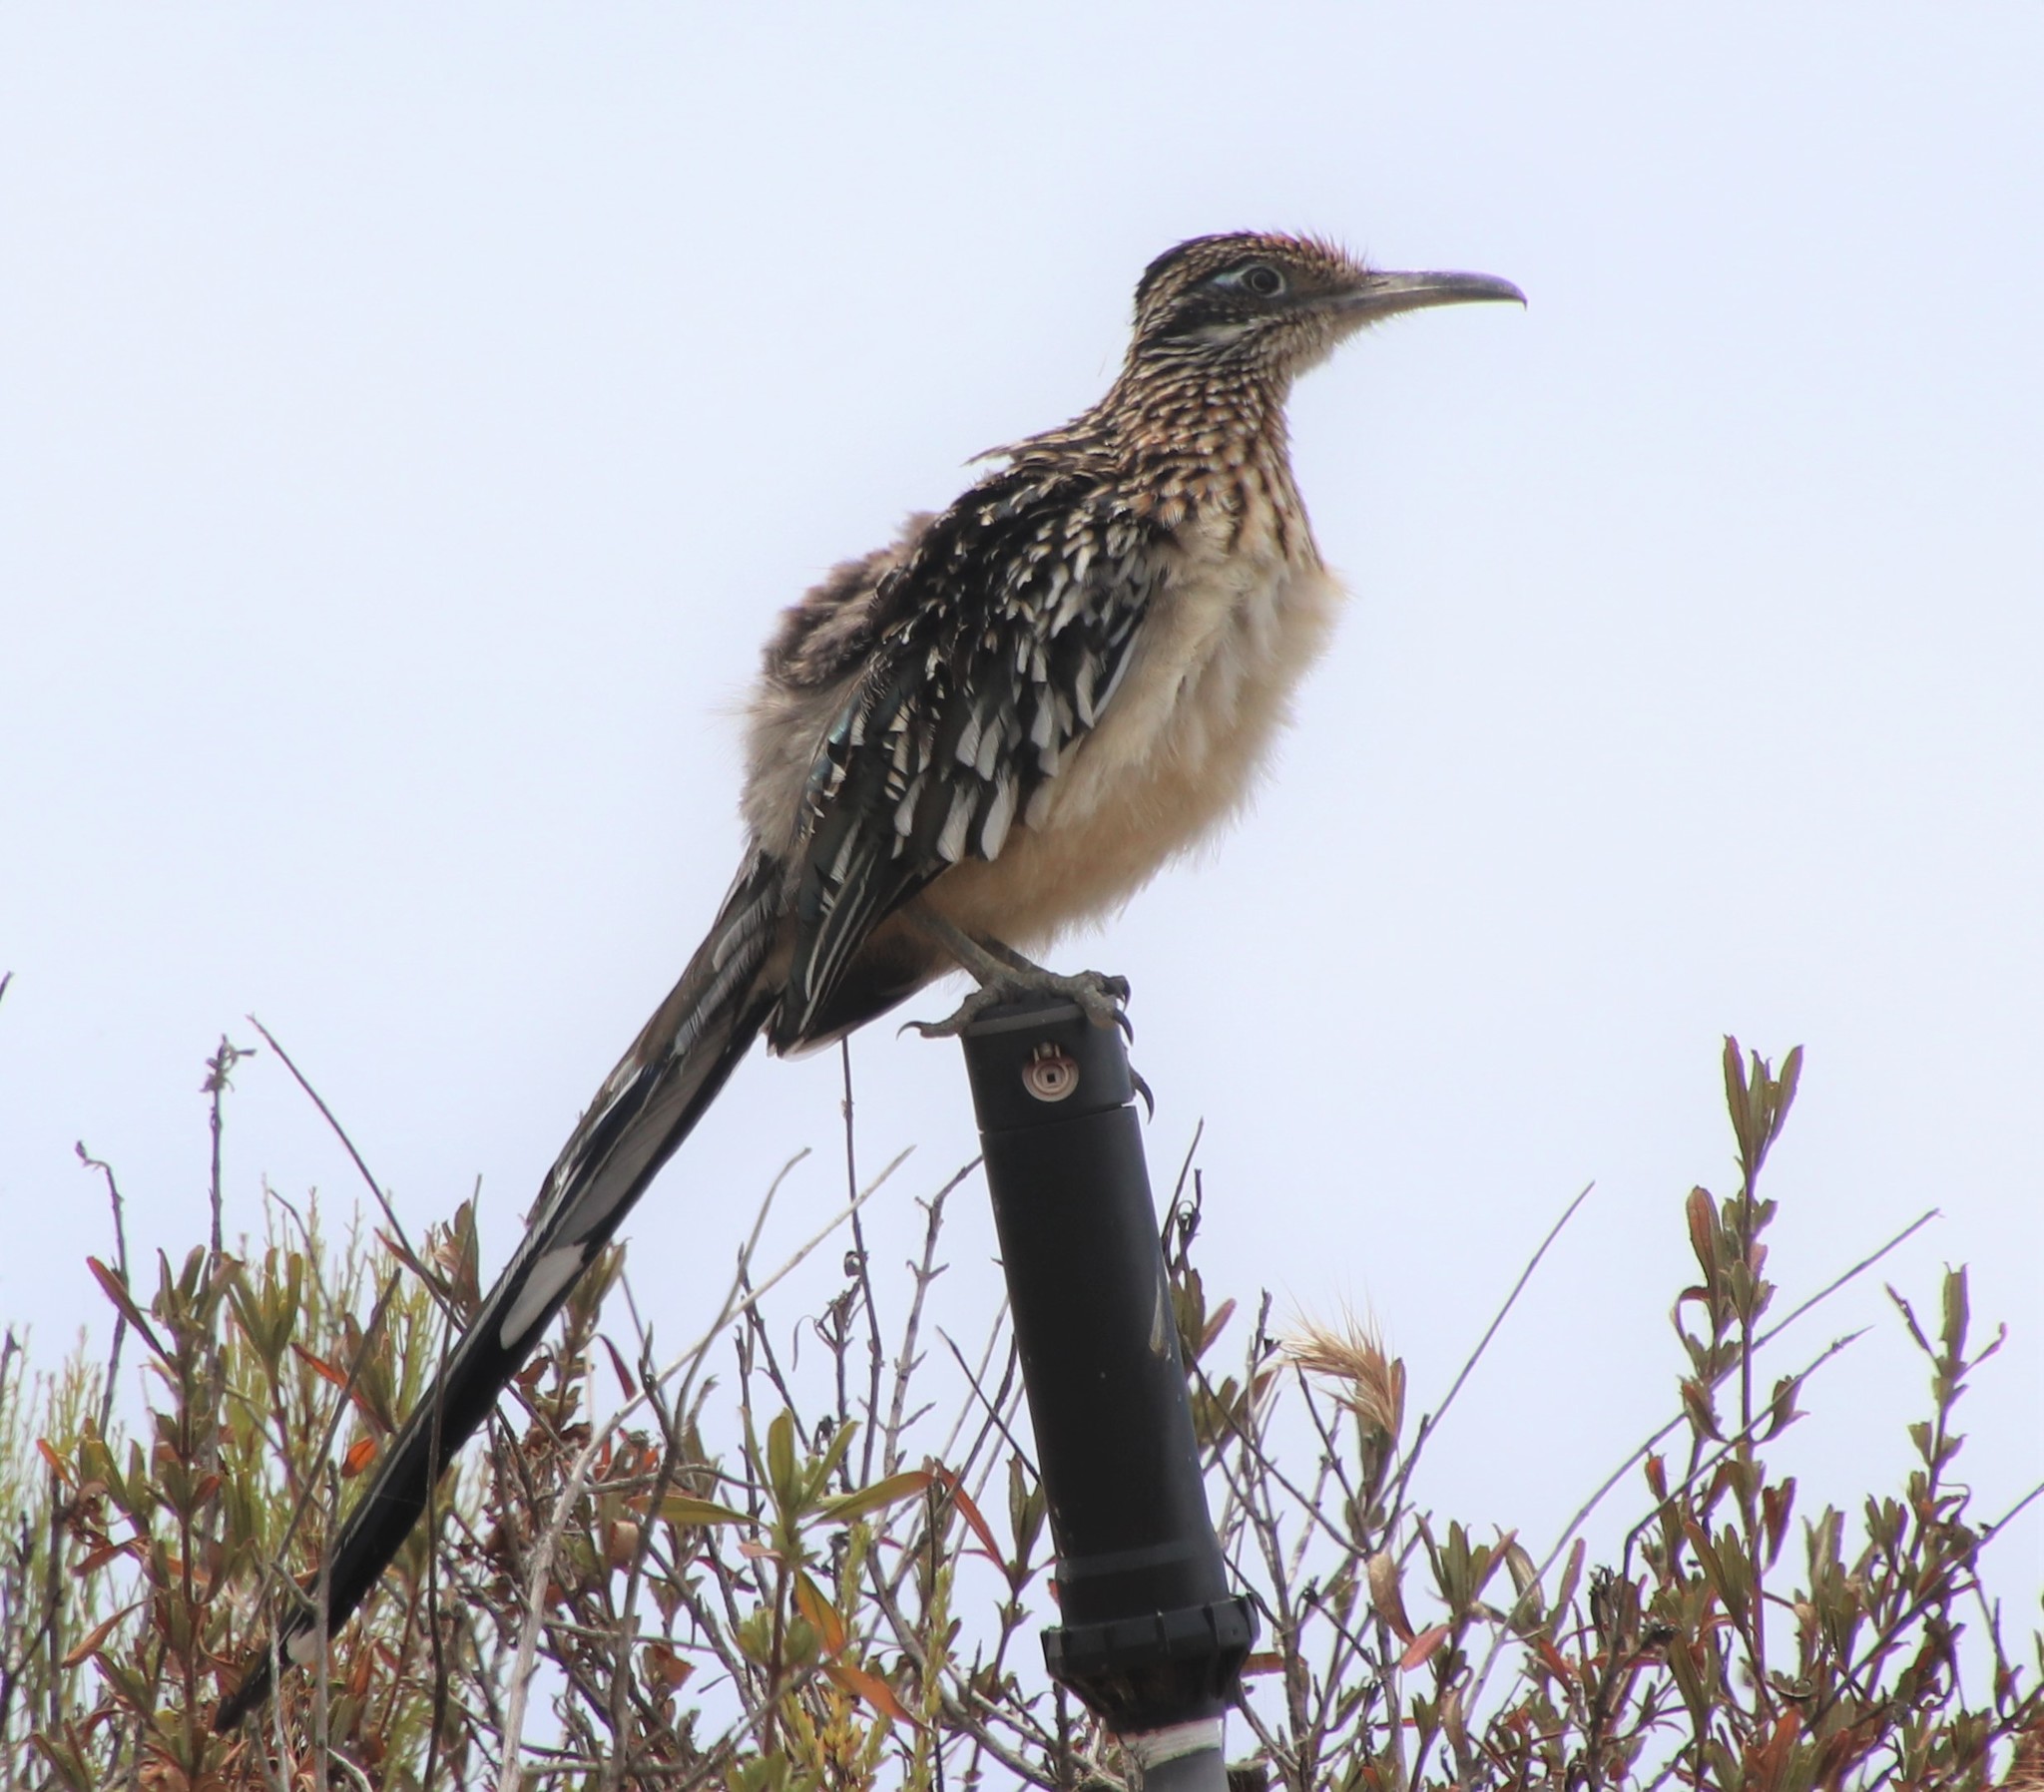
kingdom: Animalia
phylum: Chordata
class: Aves
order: Cuculiformes
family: Cuculidae
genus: Geococcyx
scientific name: Geococcyx californianus
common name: Greater roadrunner
